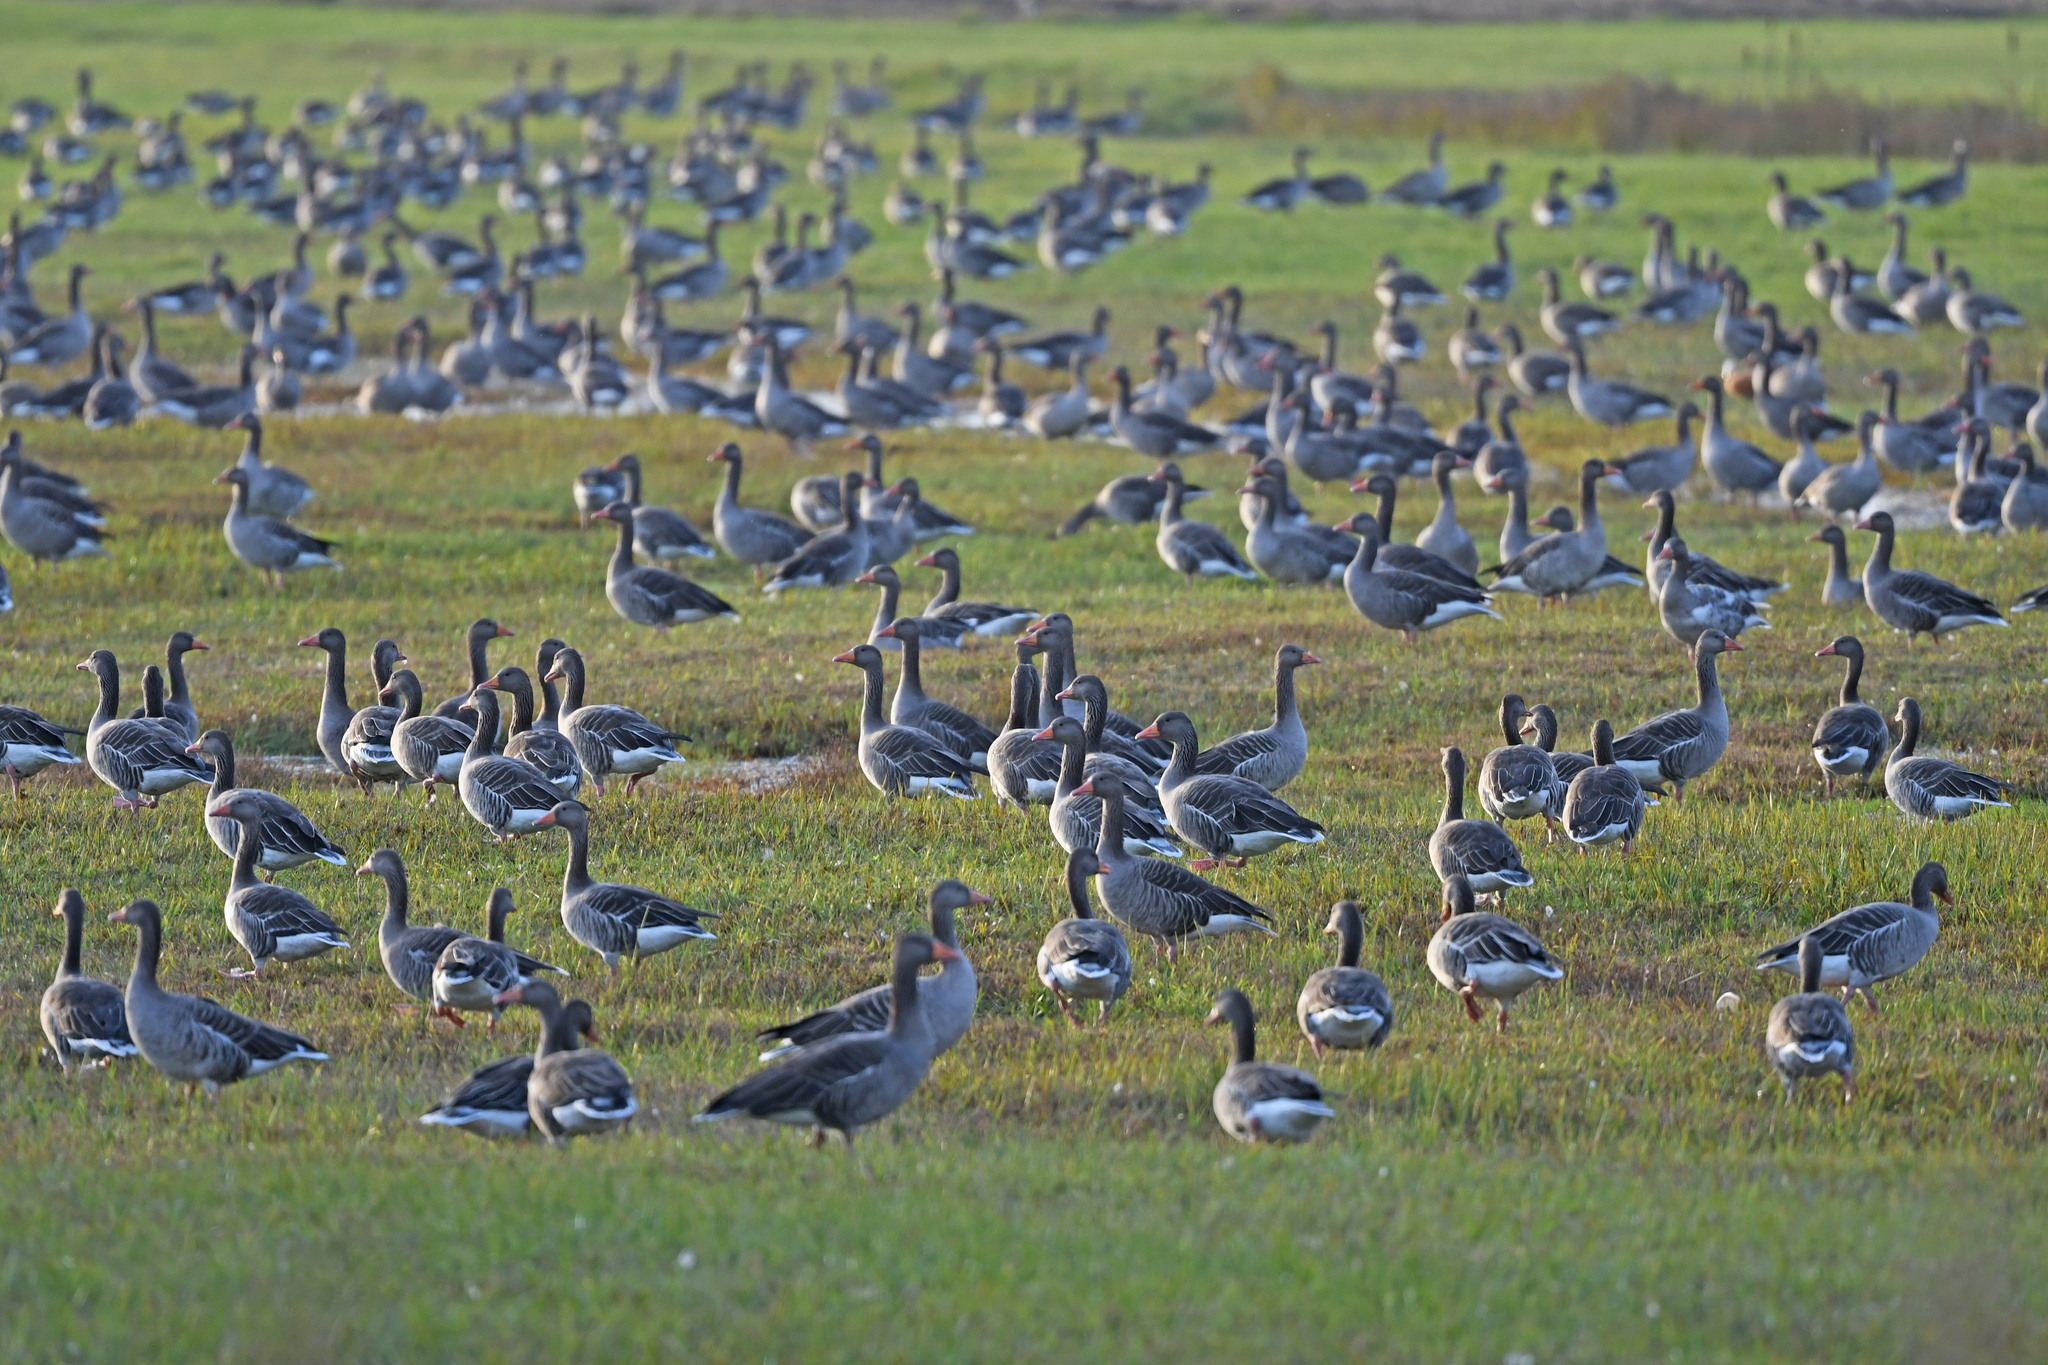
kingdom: Animalia
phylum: Chordata
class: Aves
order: Anseriformes
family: Anatidae
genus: Anser
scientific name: Anser anser
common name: Greylag goose
